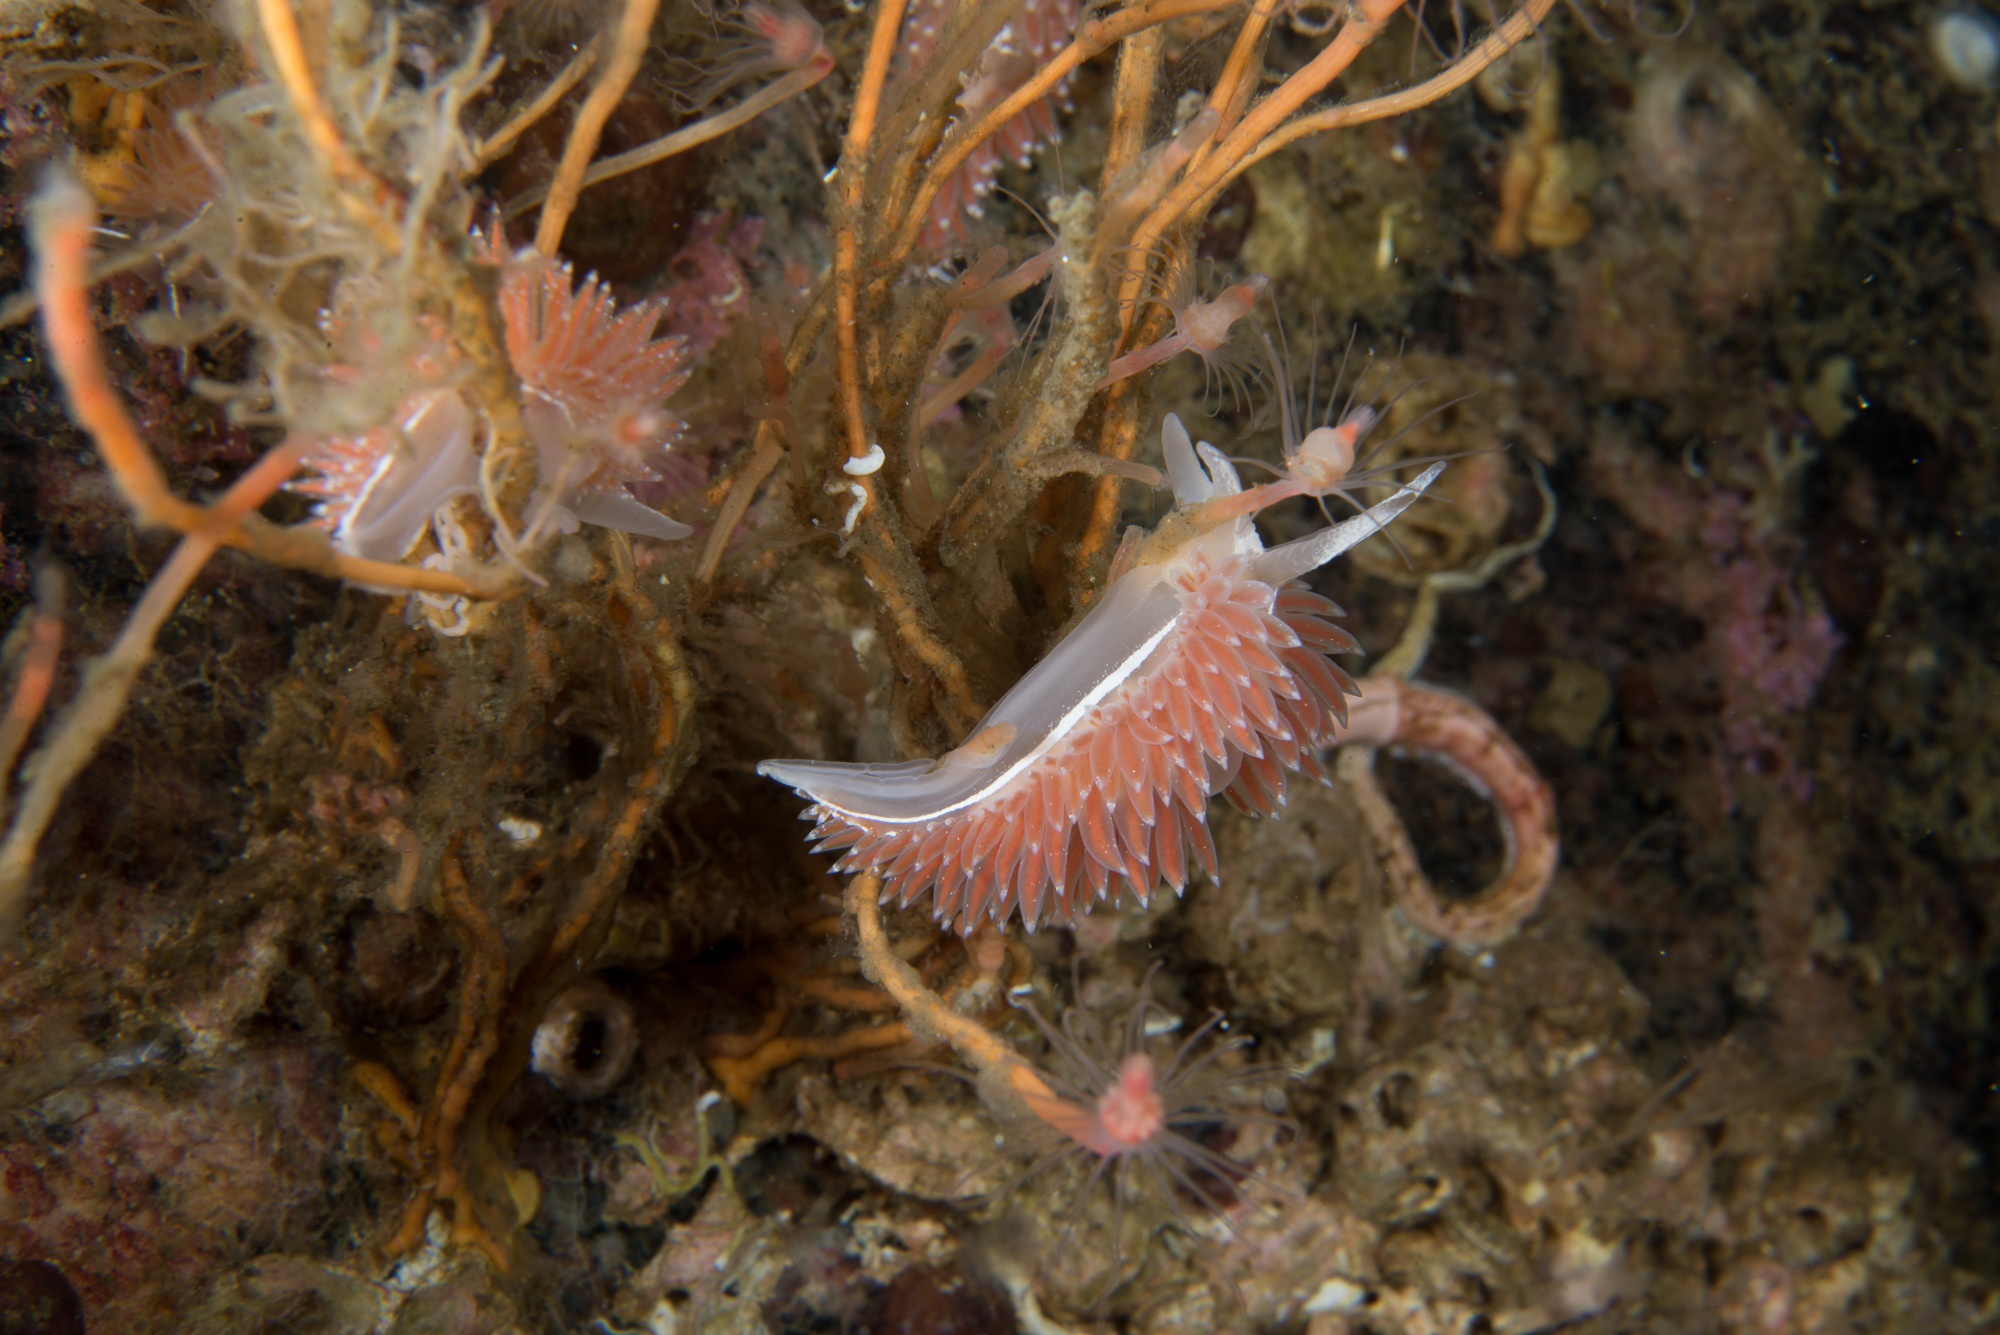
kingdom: Animalia
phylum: Mollusca
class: Gastropoda
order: Nudibranchia
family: Coryphellidae
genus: Coryphella
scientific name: Coryphella monicae
